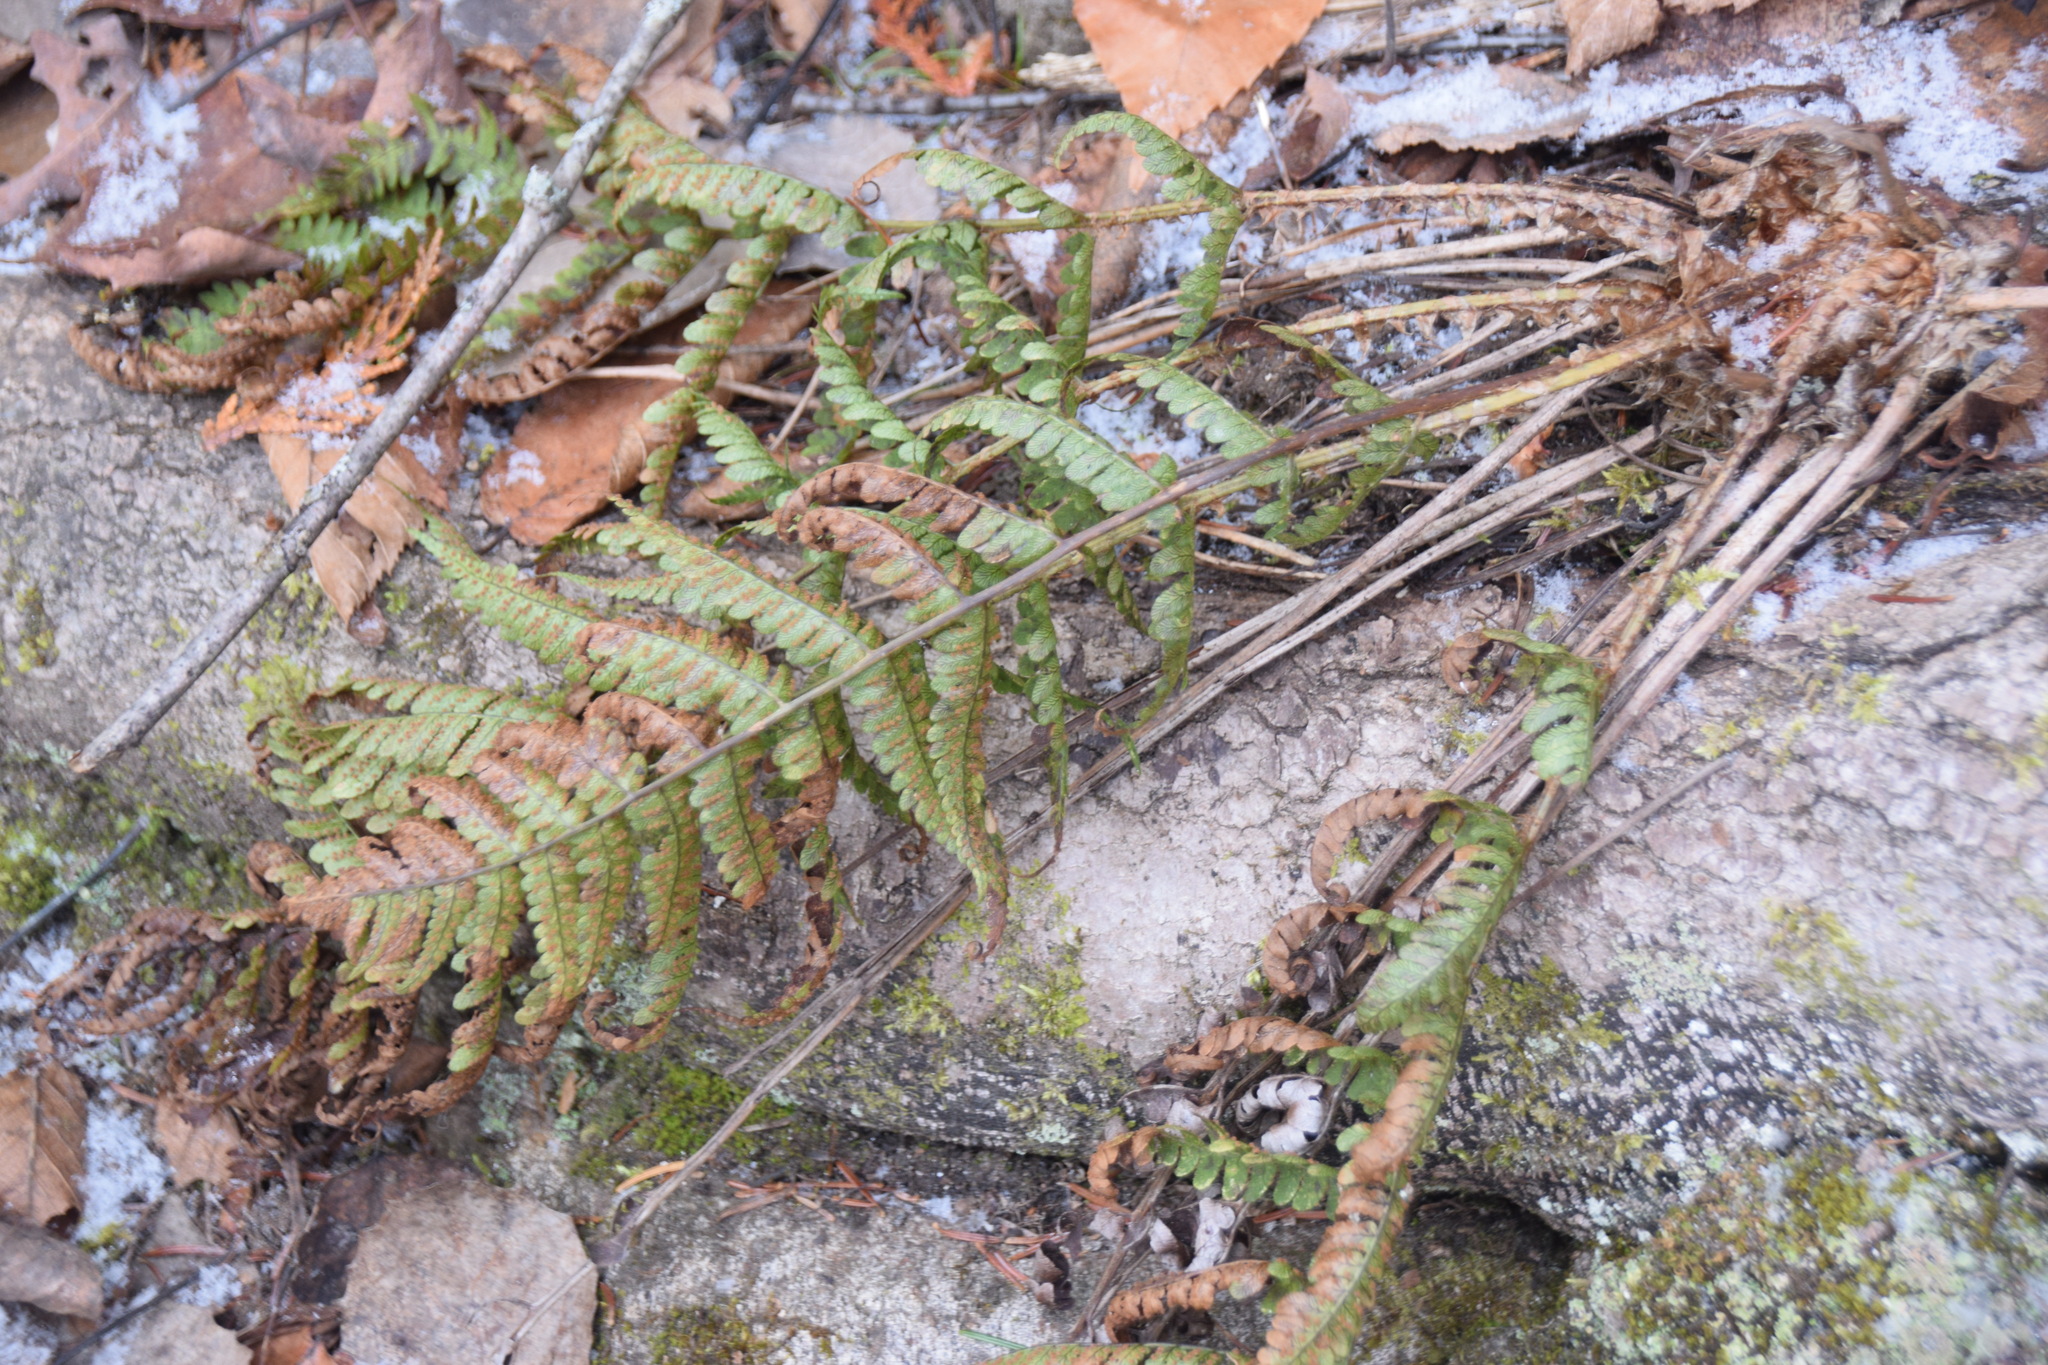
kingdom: Plantae
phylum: Tracheophyta
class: Polypodiopsida
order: Polypodiales
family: Dryopteridaceae
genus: Dryopteris
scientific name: Dryopteris marginalis
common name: Marginal wood fern
